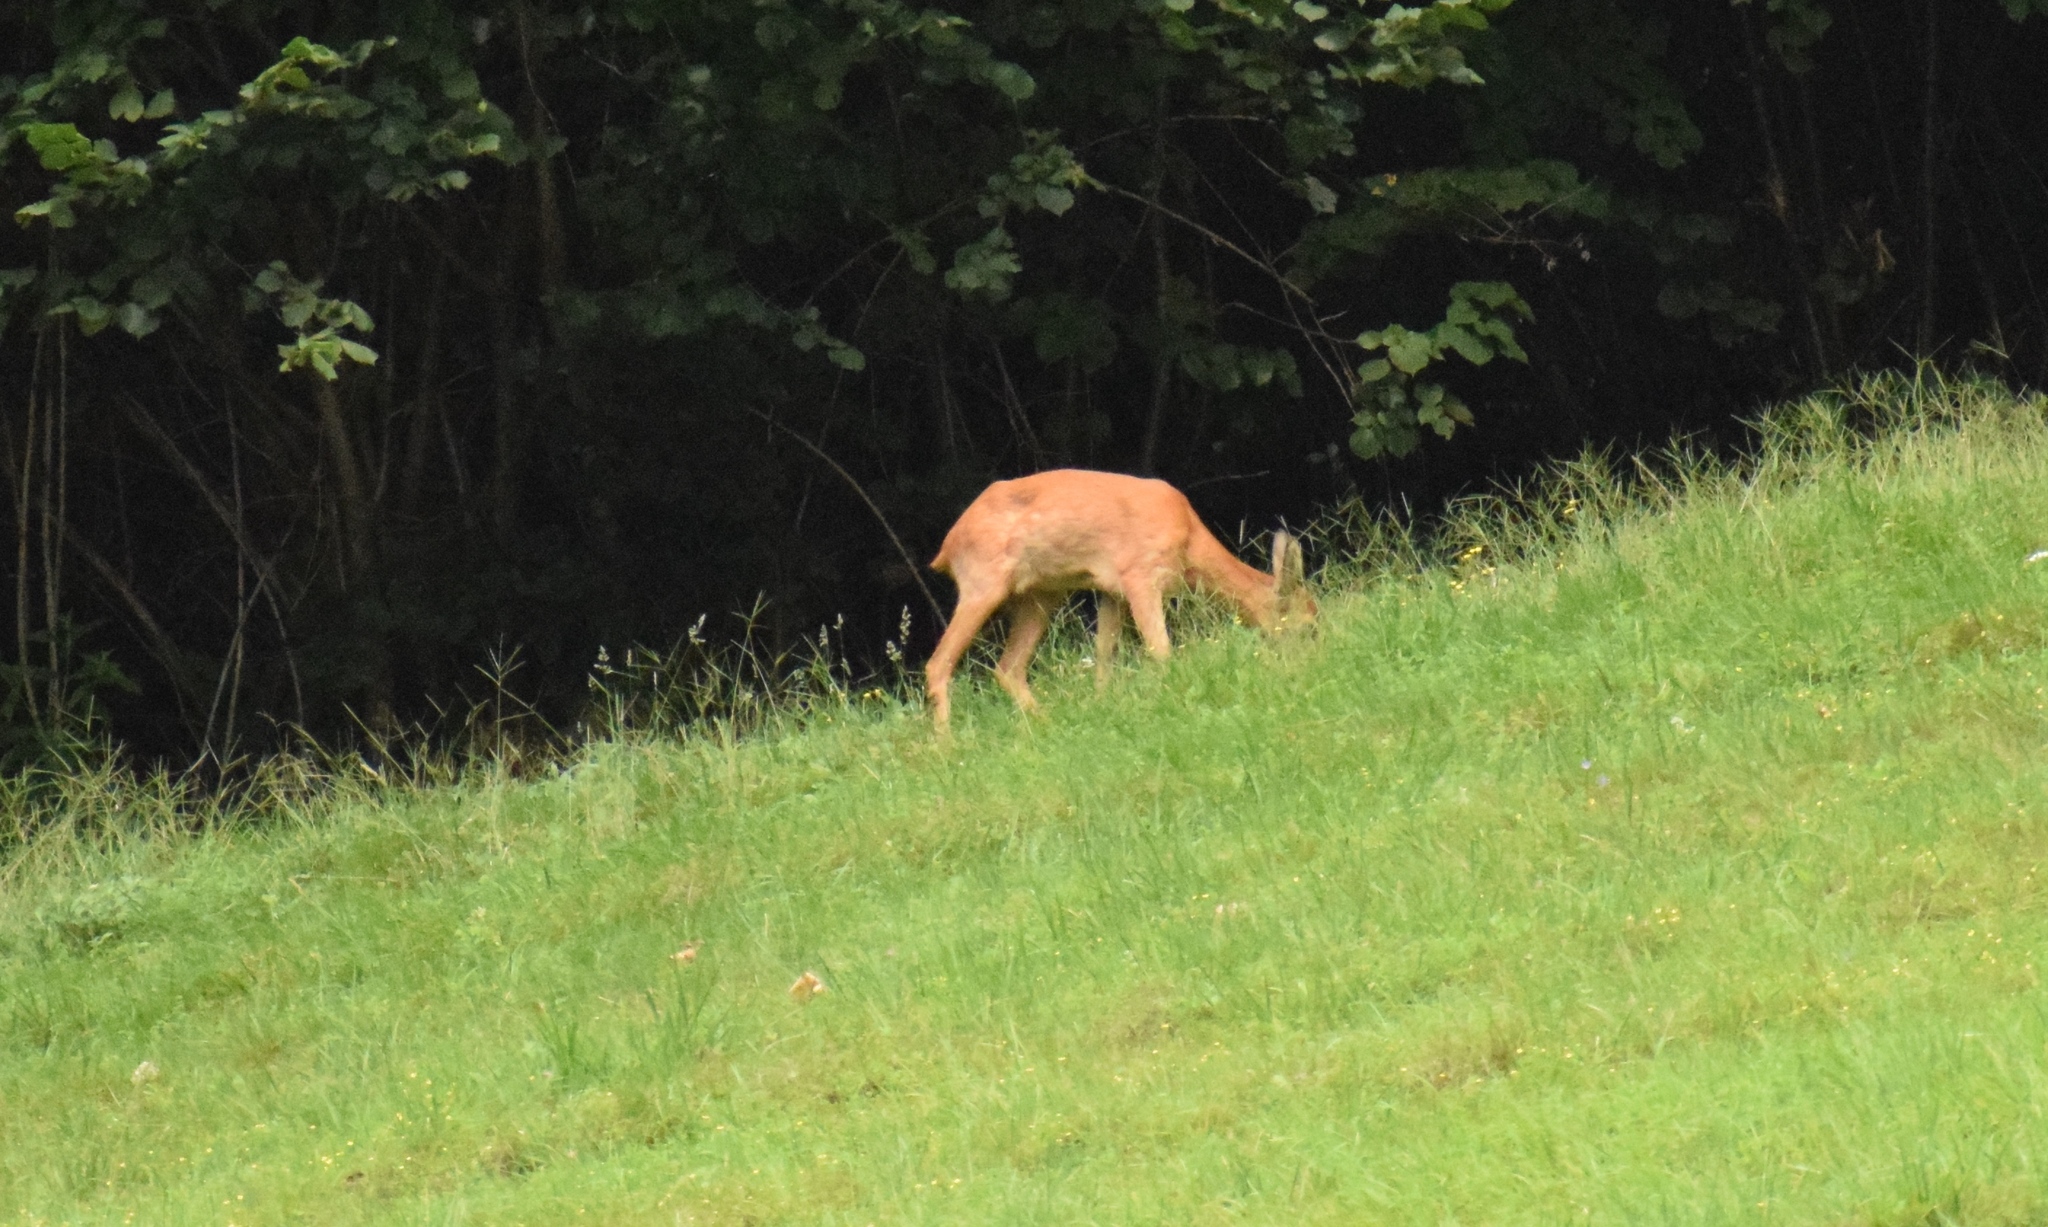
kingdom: Animalia
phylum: Chordata
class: Mammalia
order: Artiodactyla
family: Cervidae
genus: Capreolus
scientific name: Capreolus capreolus
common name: Western roe deer
